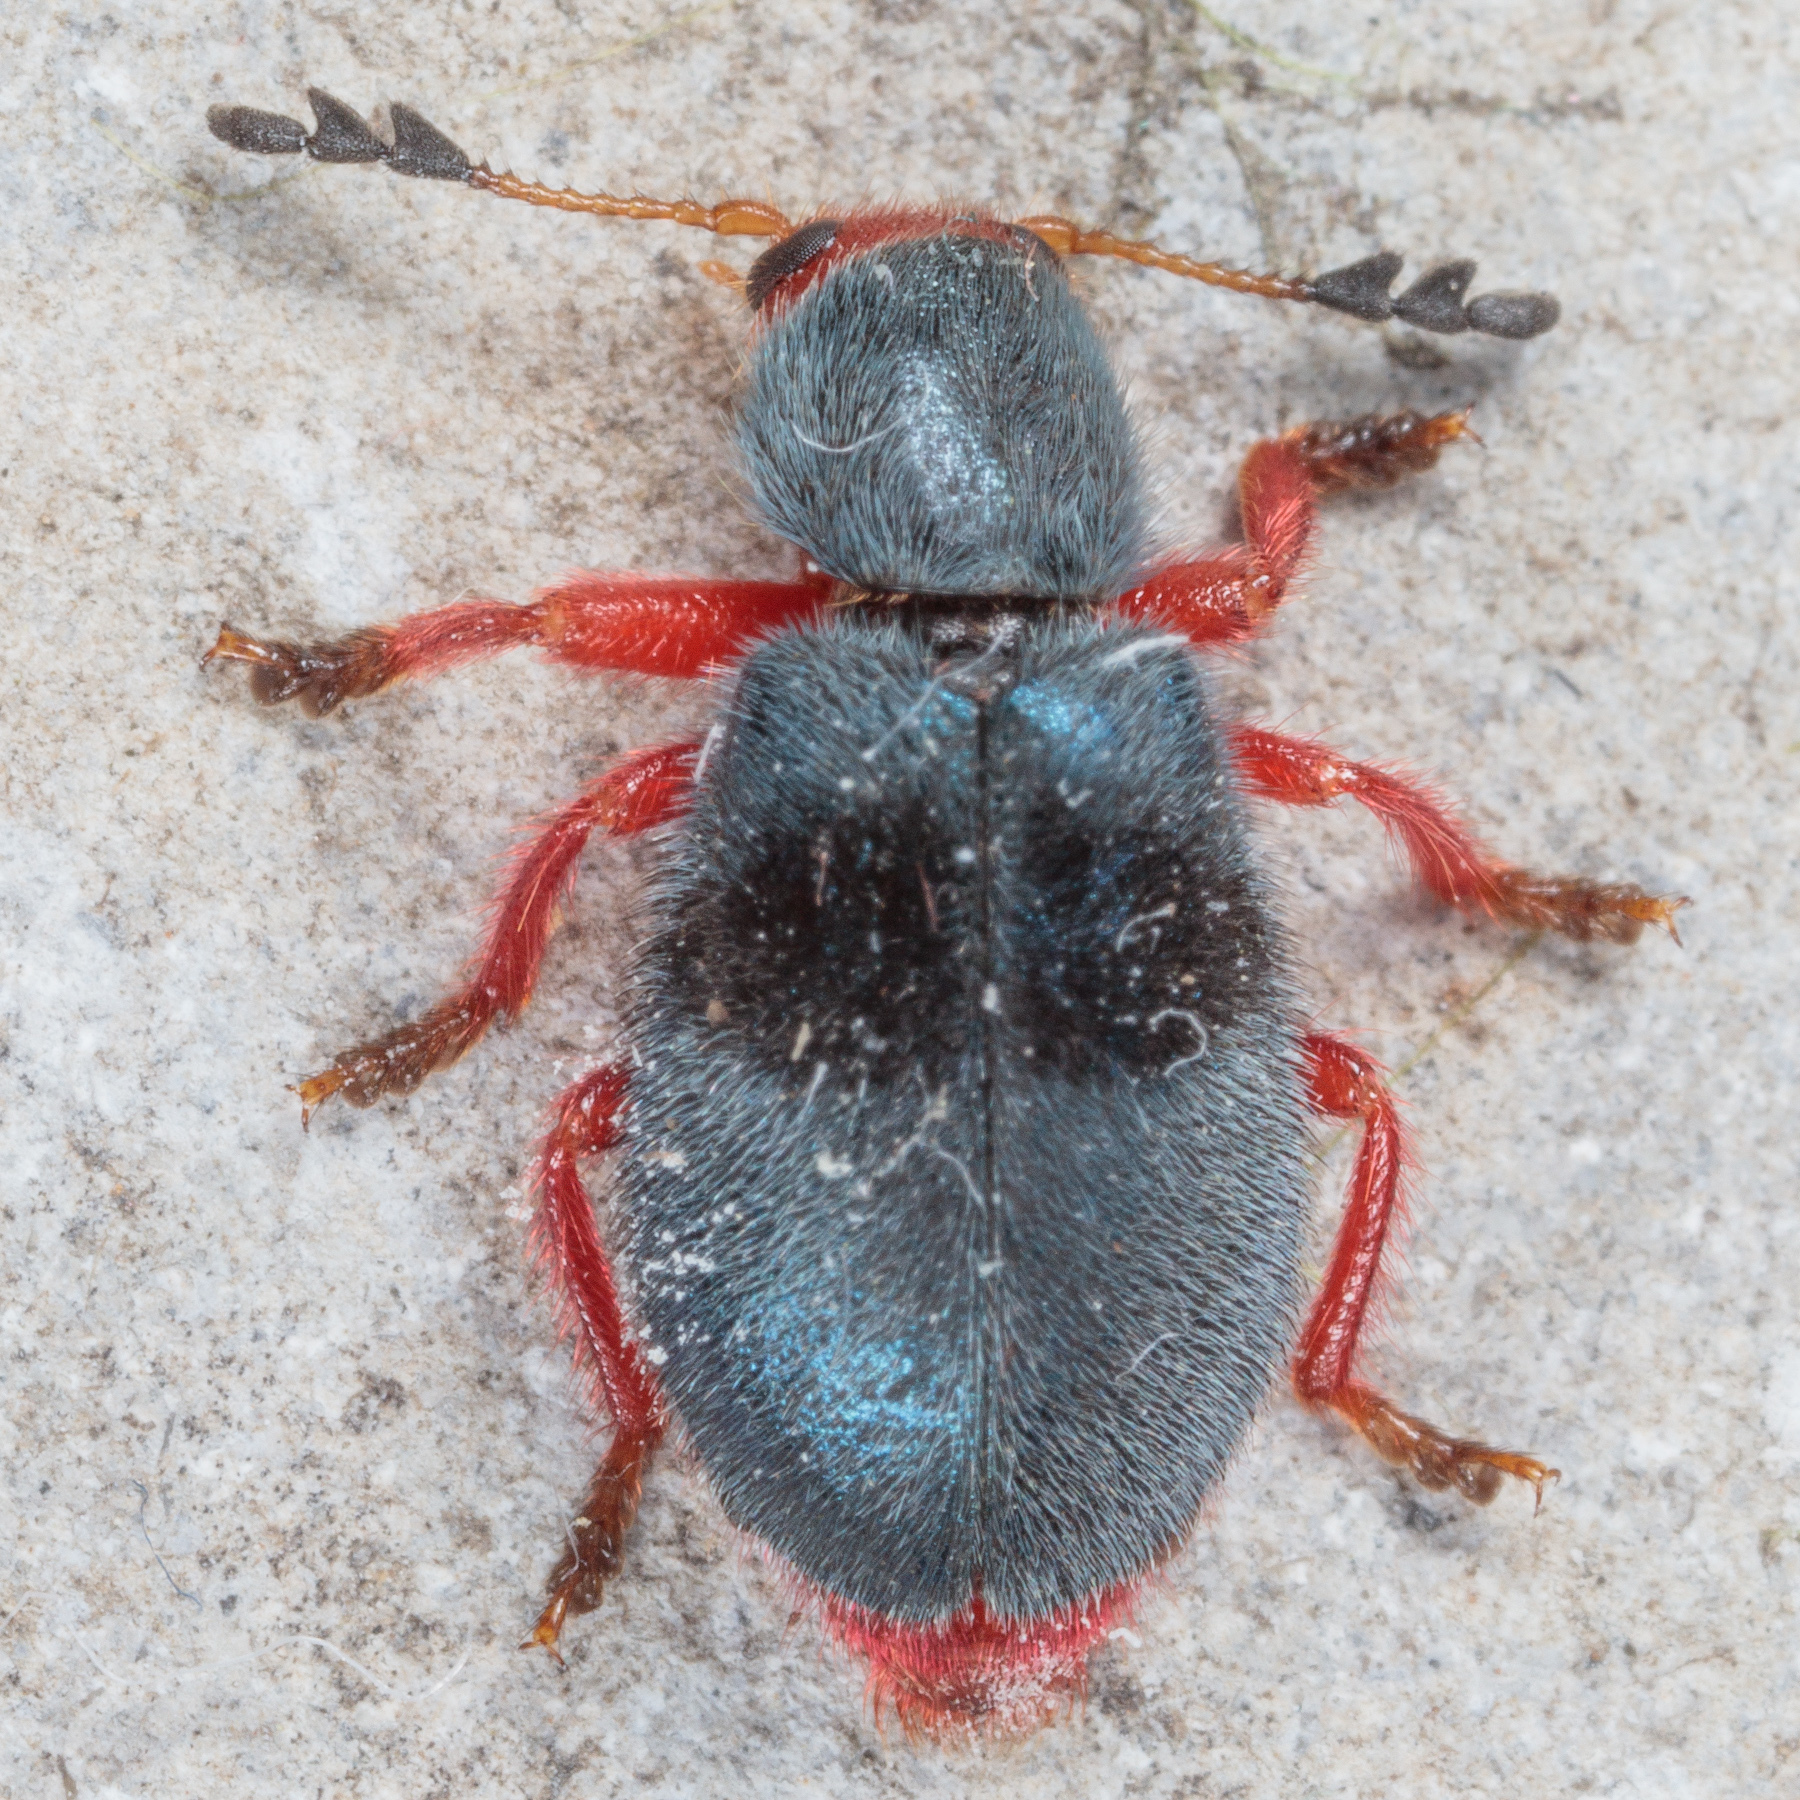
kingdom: Animalia
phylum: Arthropoda
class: Insecta
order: Coleoptera
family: Cleridae
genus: Chariessa
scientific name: Chariessa vestita
